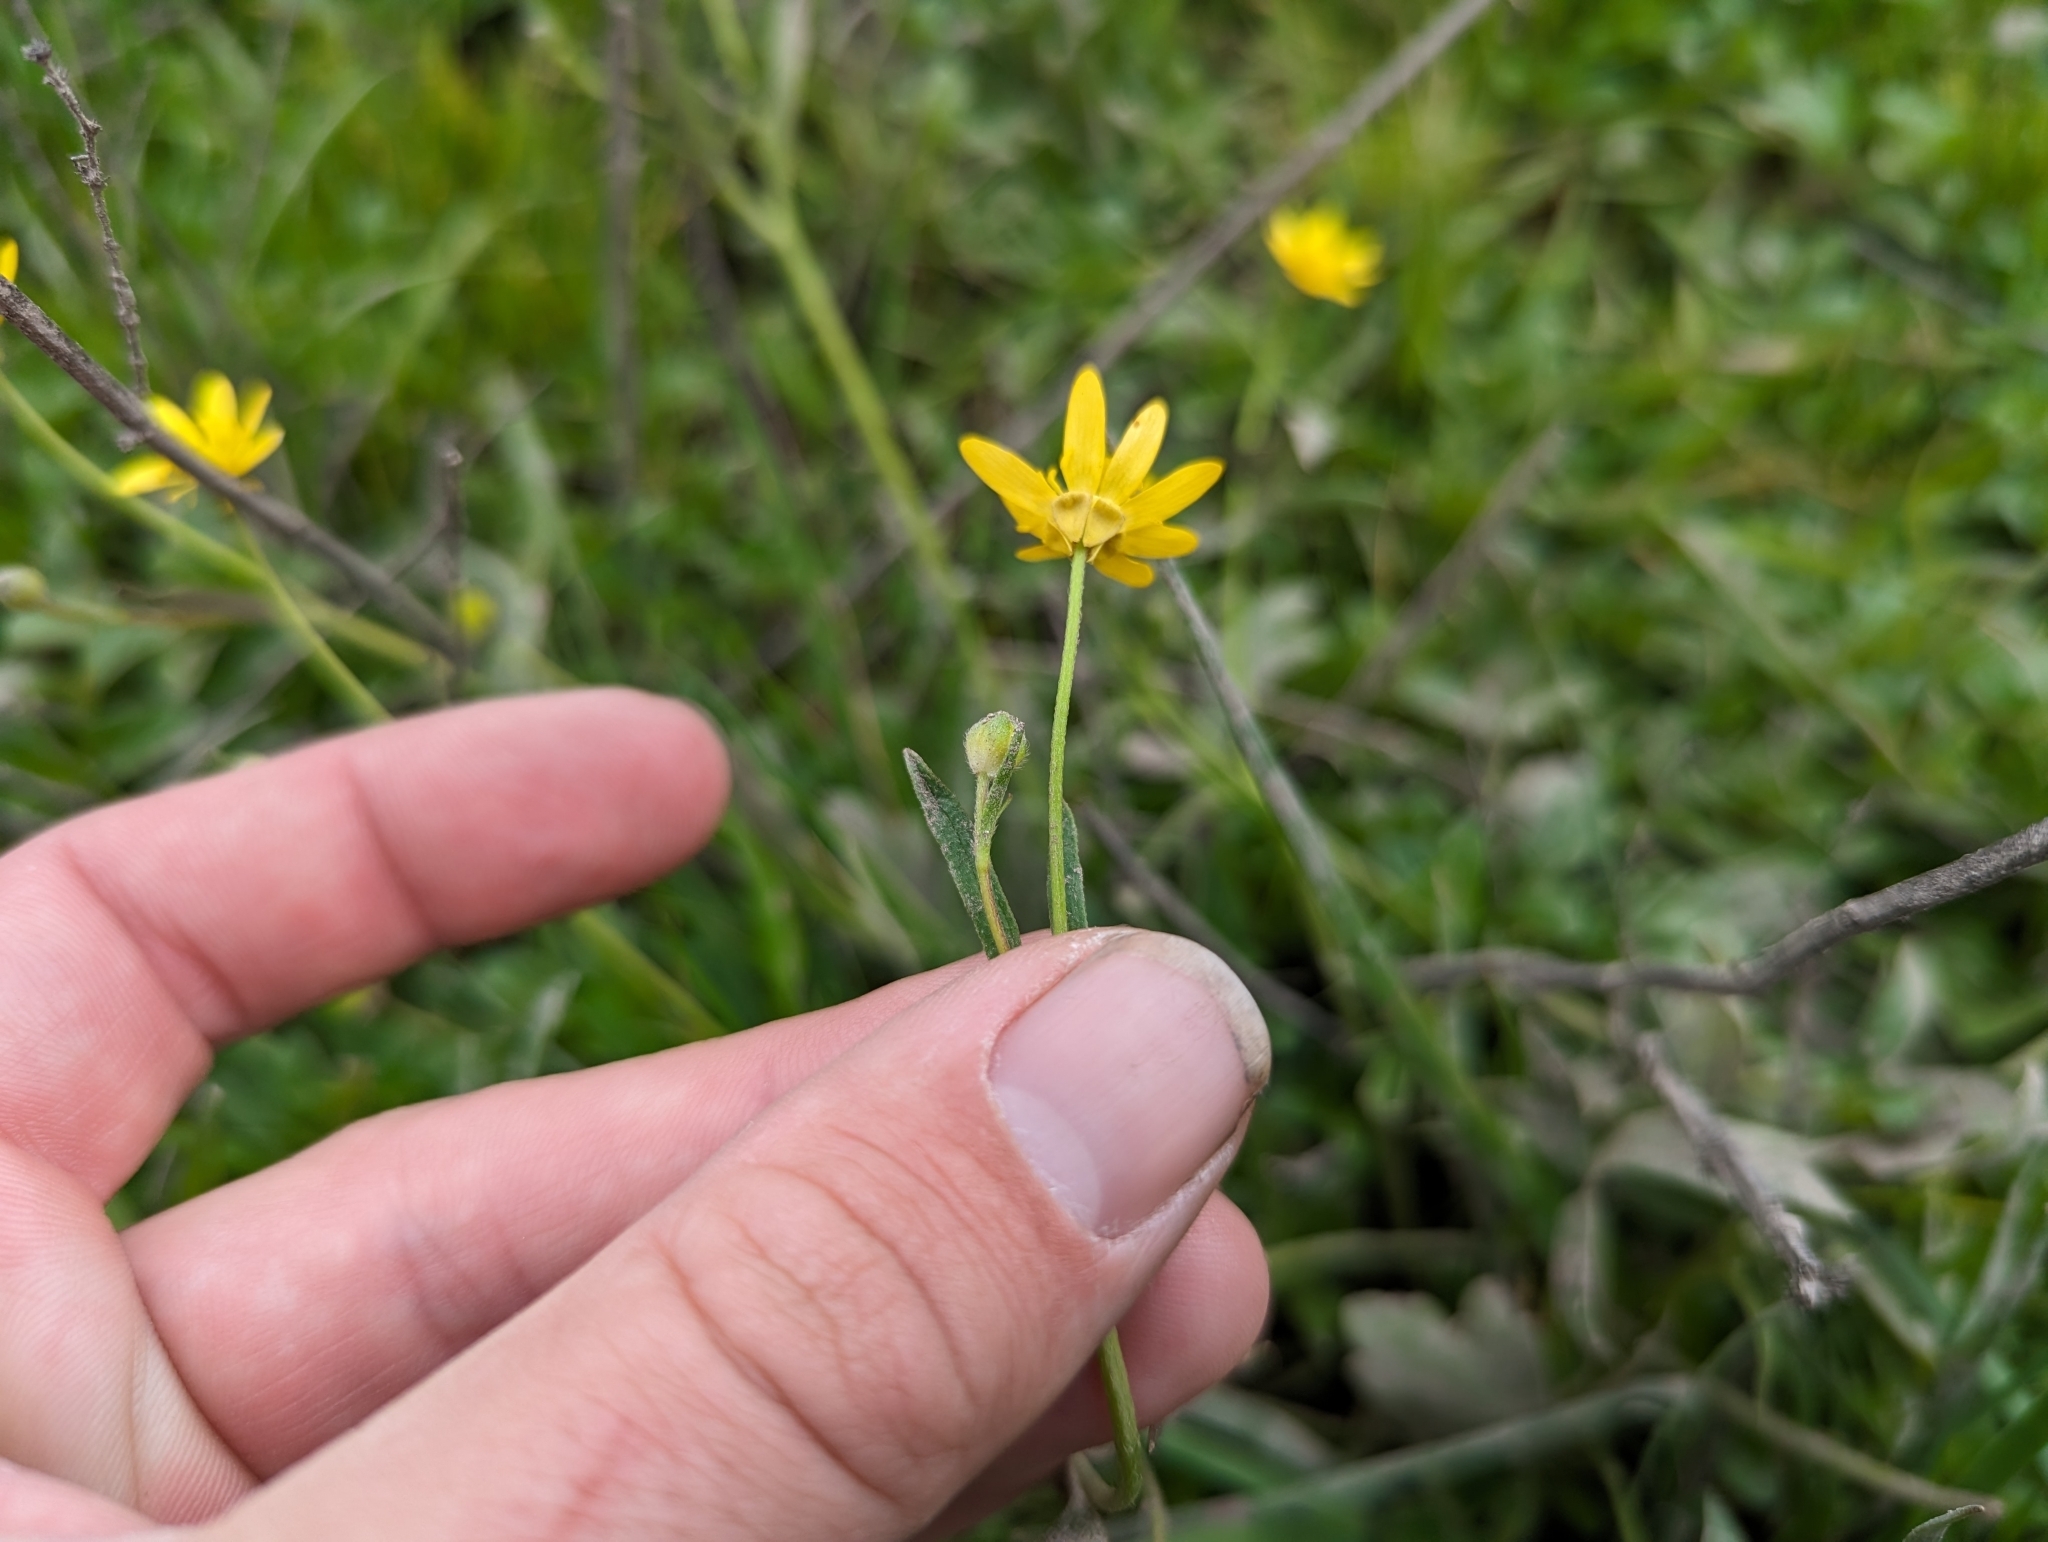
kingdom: Plantae
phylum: Tracheophyta
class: Magnoliopsida
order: Ranunculales
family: Ranunculaceae
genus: Ranunculus
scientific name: Ranunculus californicus
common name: California buttercup
